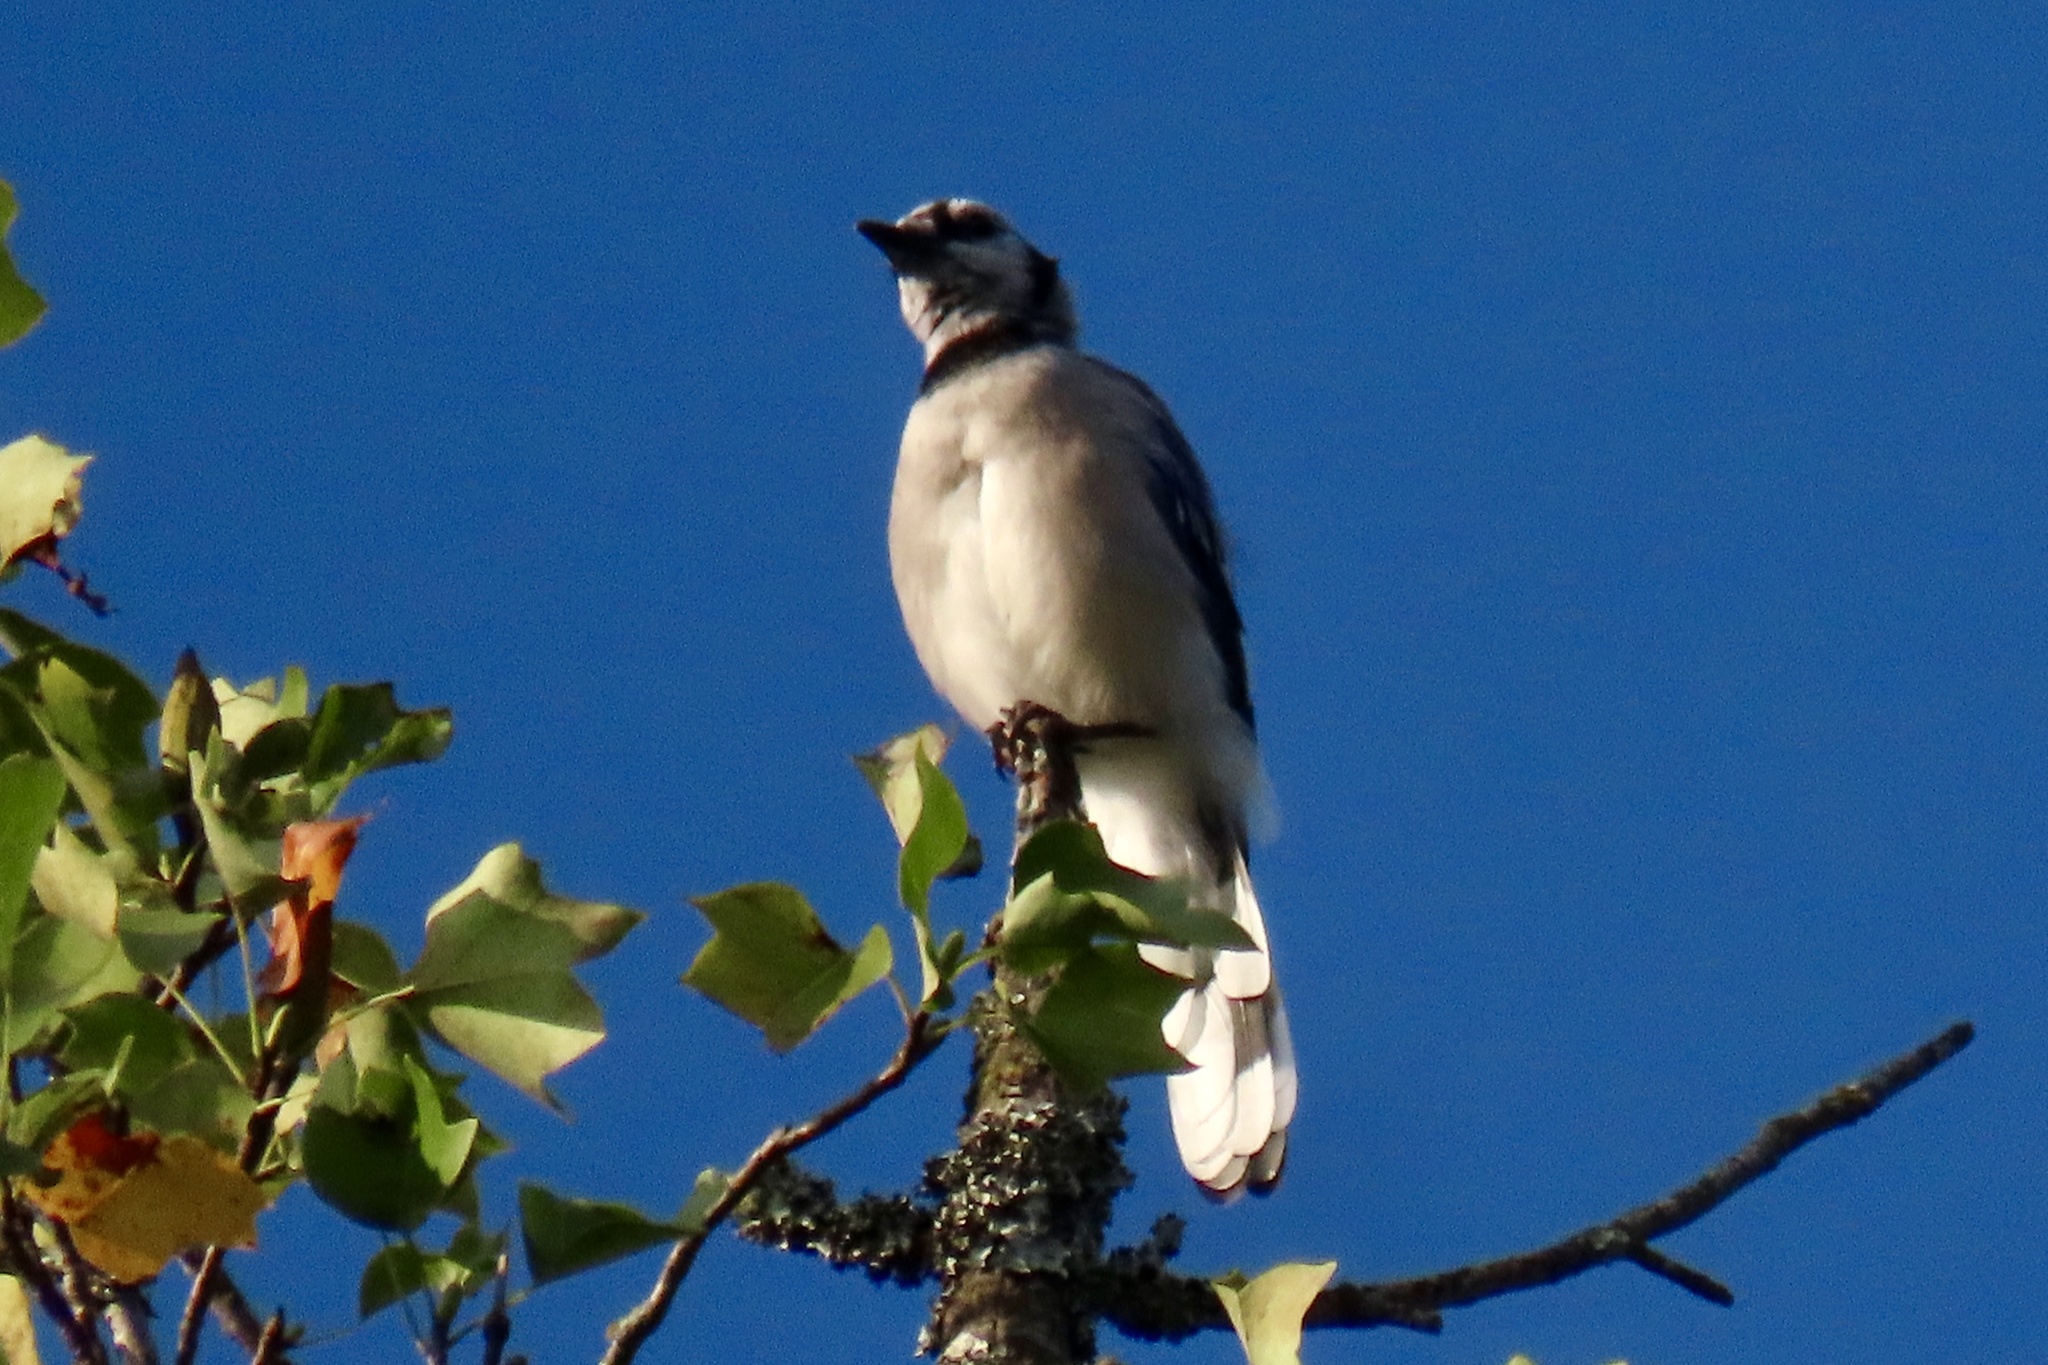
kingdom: Animalia
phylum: Chordata
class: Aves
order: Passeriformes
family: Corvidae
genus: Cyanocitta
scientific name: Cyanocitta cristata
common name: Blue jay
